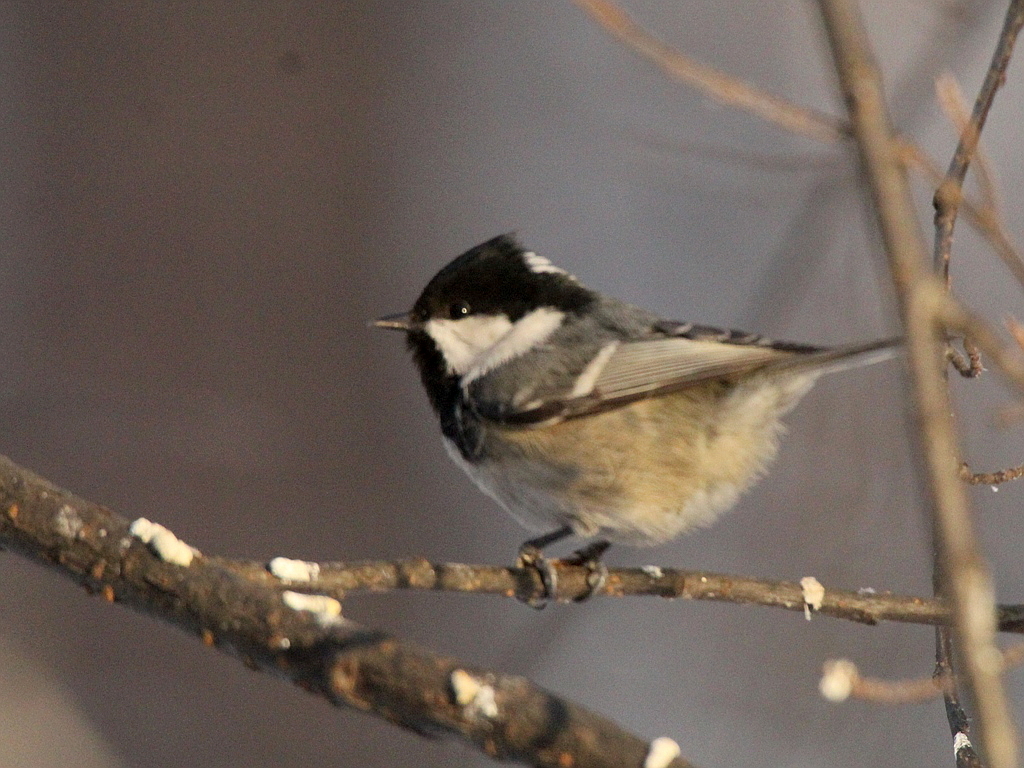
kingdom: Animalia
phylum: Chordata
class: Aves
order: Passeriformes
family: Paridae
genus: Periparus
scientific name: Periparus ater
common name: Coal tit
